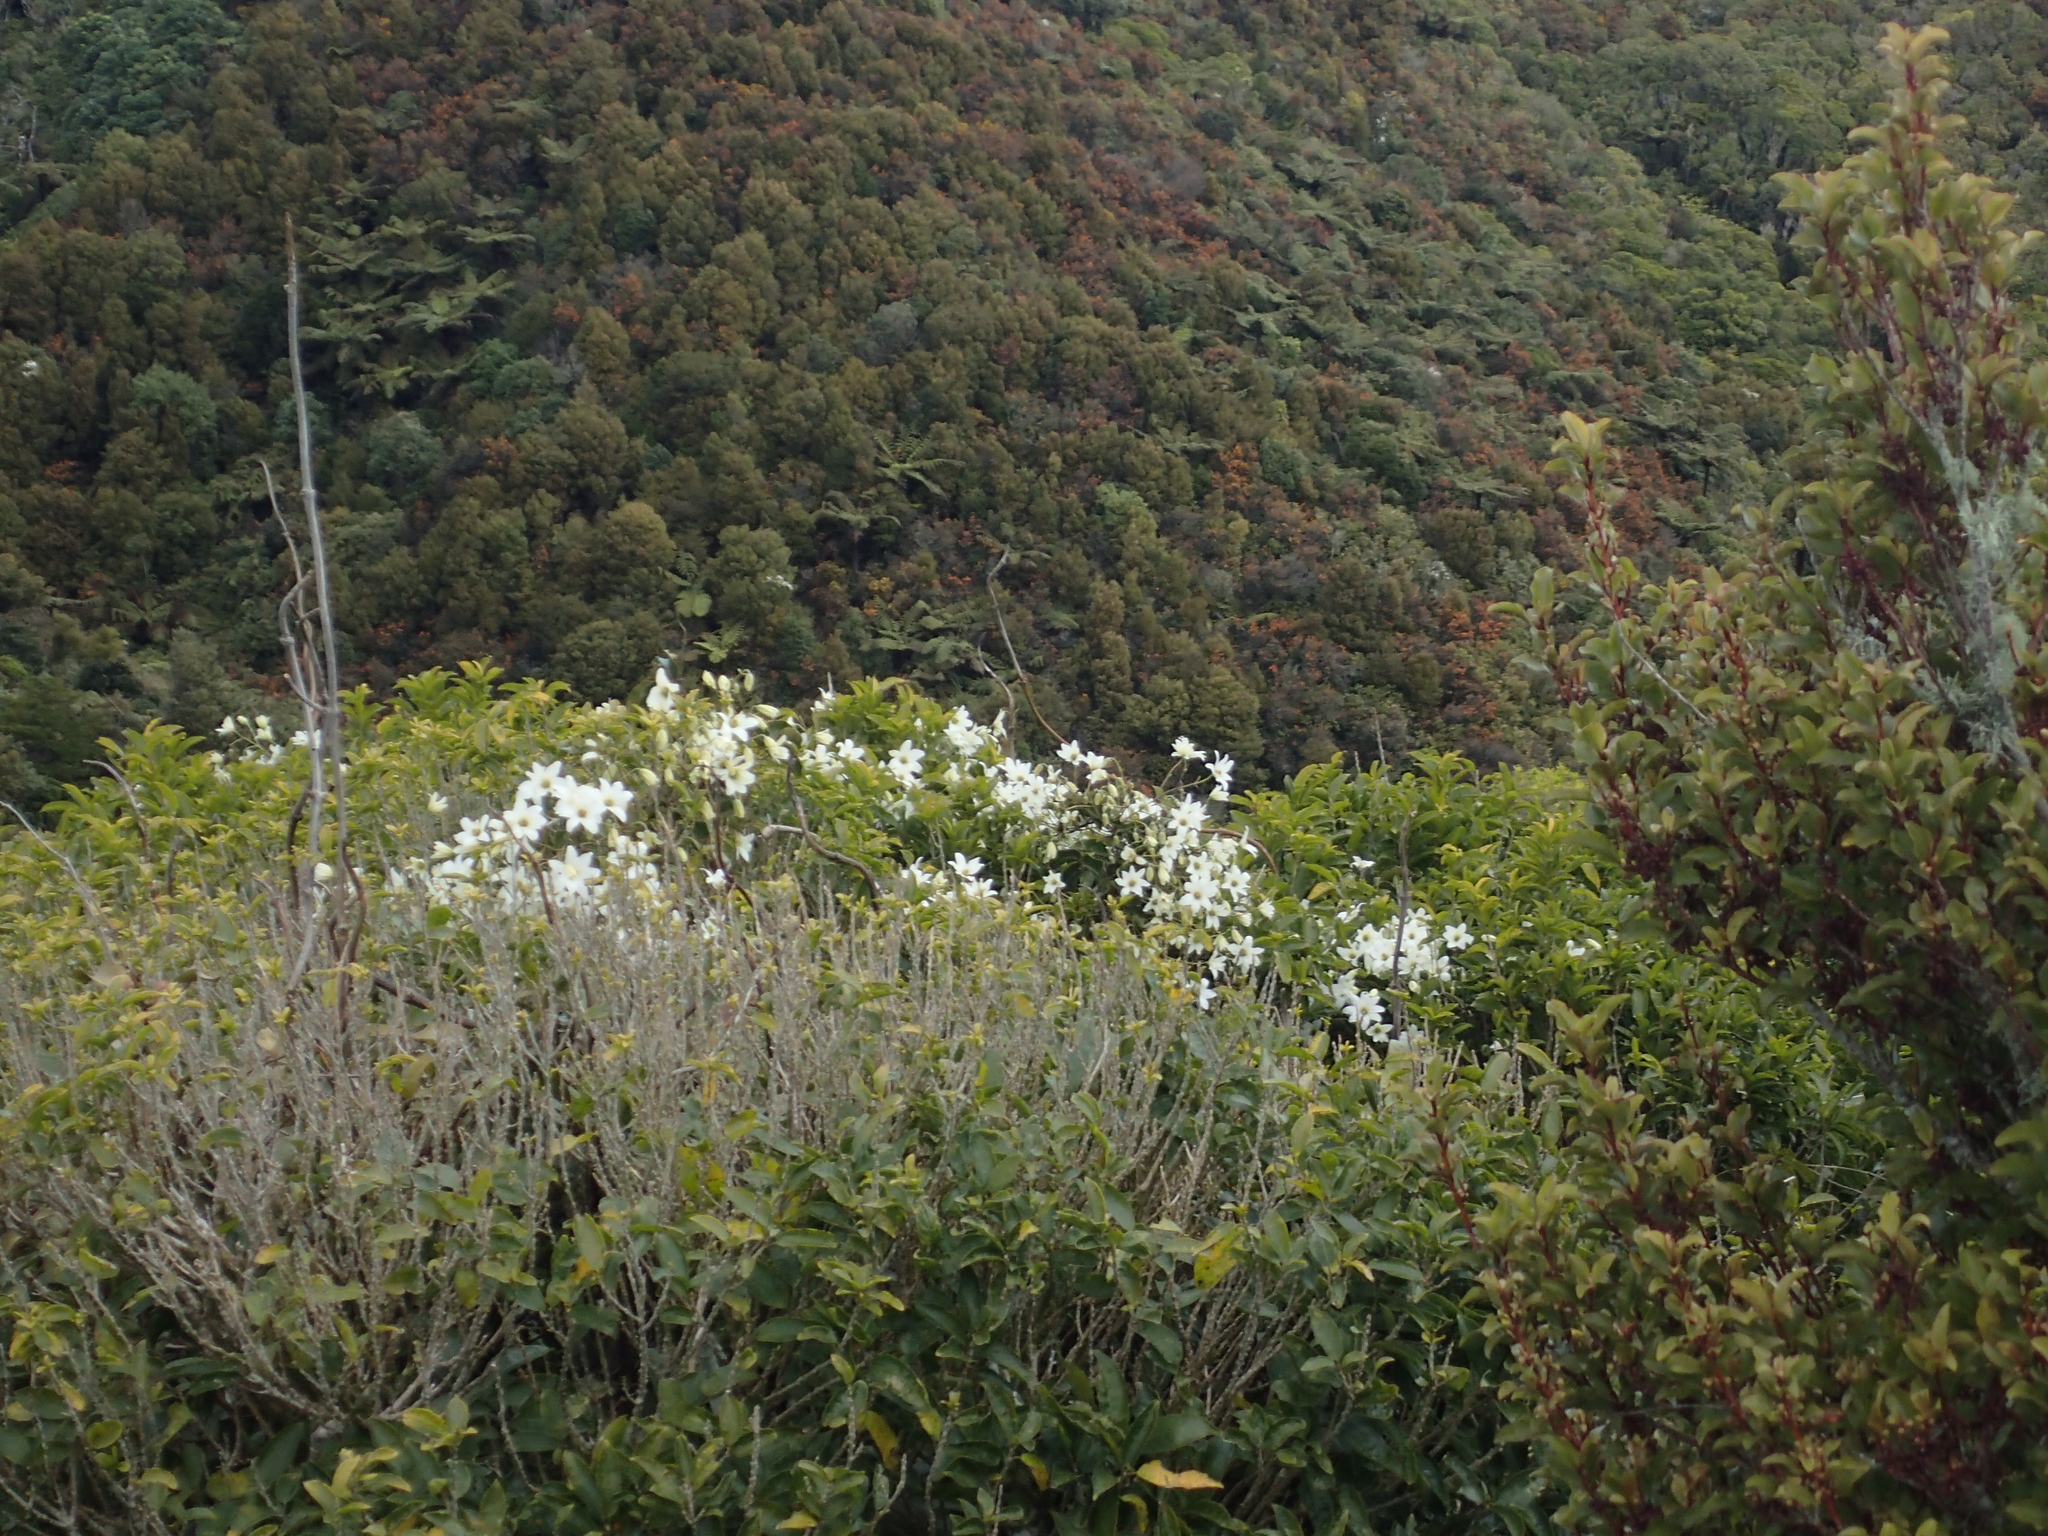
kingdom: Plantae
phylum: Tracheophyta
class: Magnoliopsida
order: Ranunculales
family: Ranunculaceae
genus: Clematis
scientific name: Clematis paniculata
